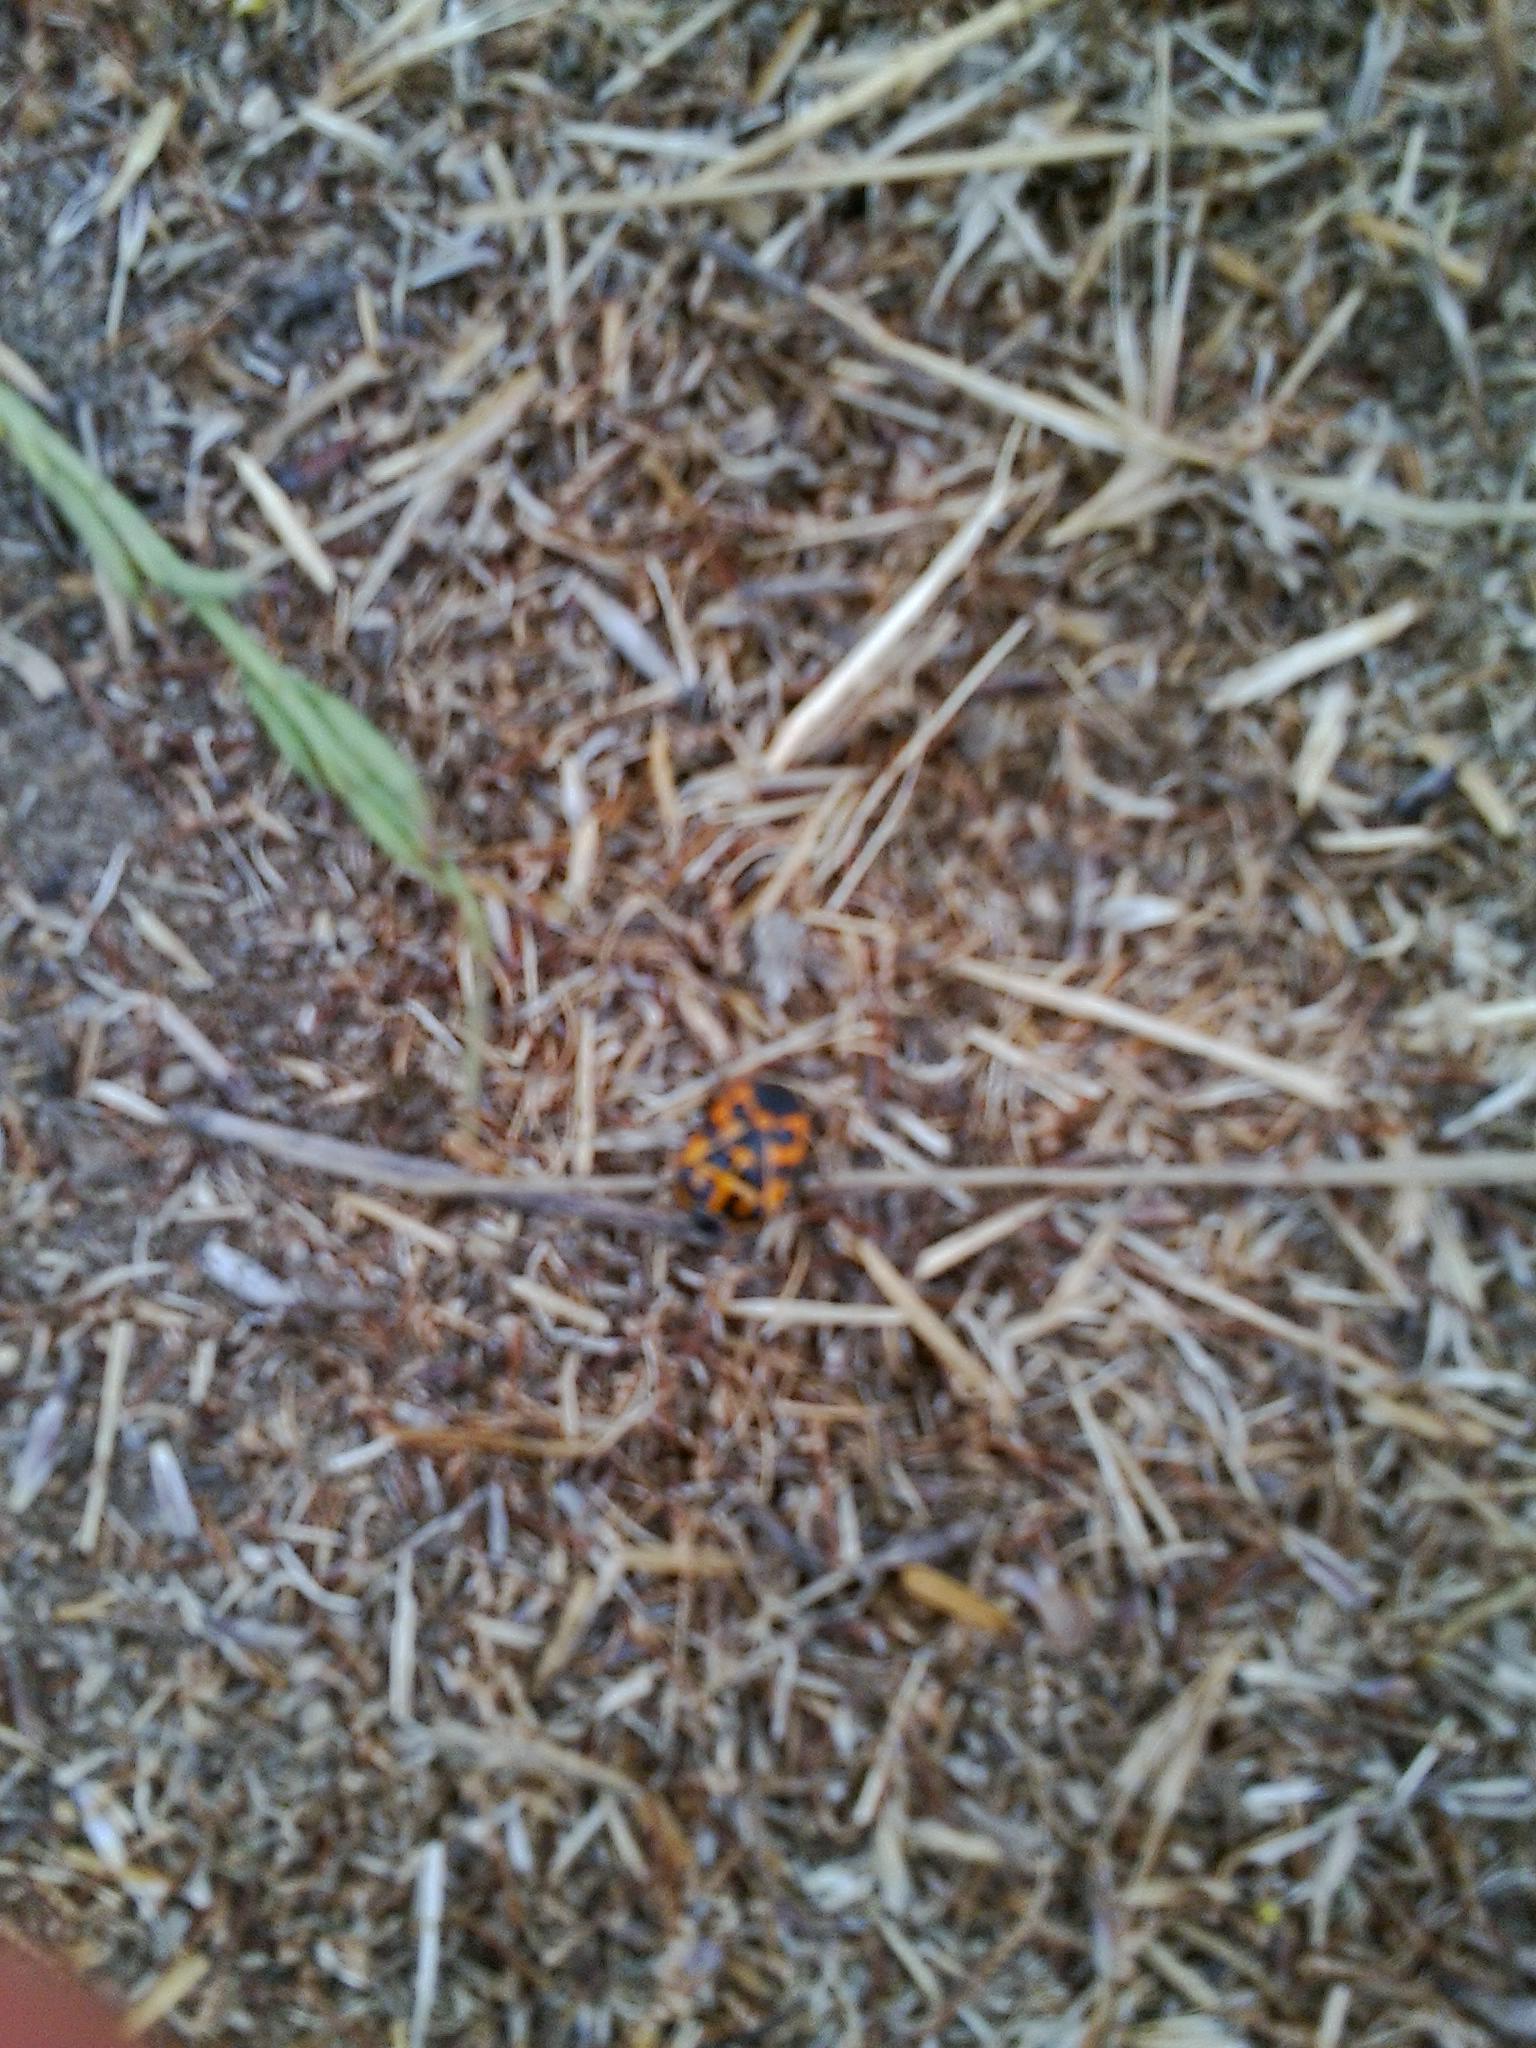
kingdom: Animalia
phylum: Arthropoda
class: Insecta
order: Hemiptera
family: Pentatomidae
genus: Murgantia
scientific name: Murgantia histrionica
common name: Harlequin bug
